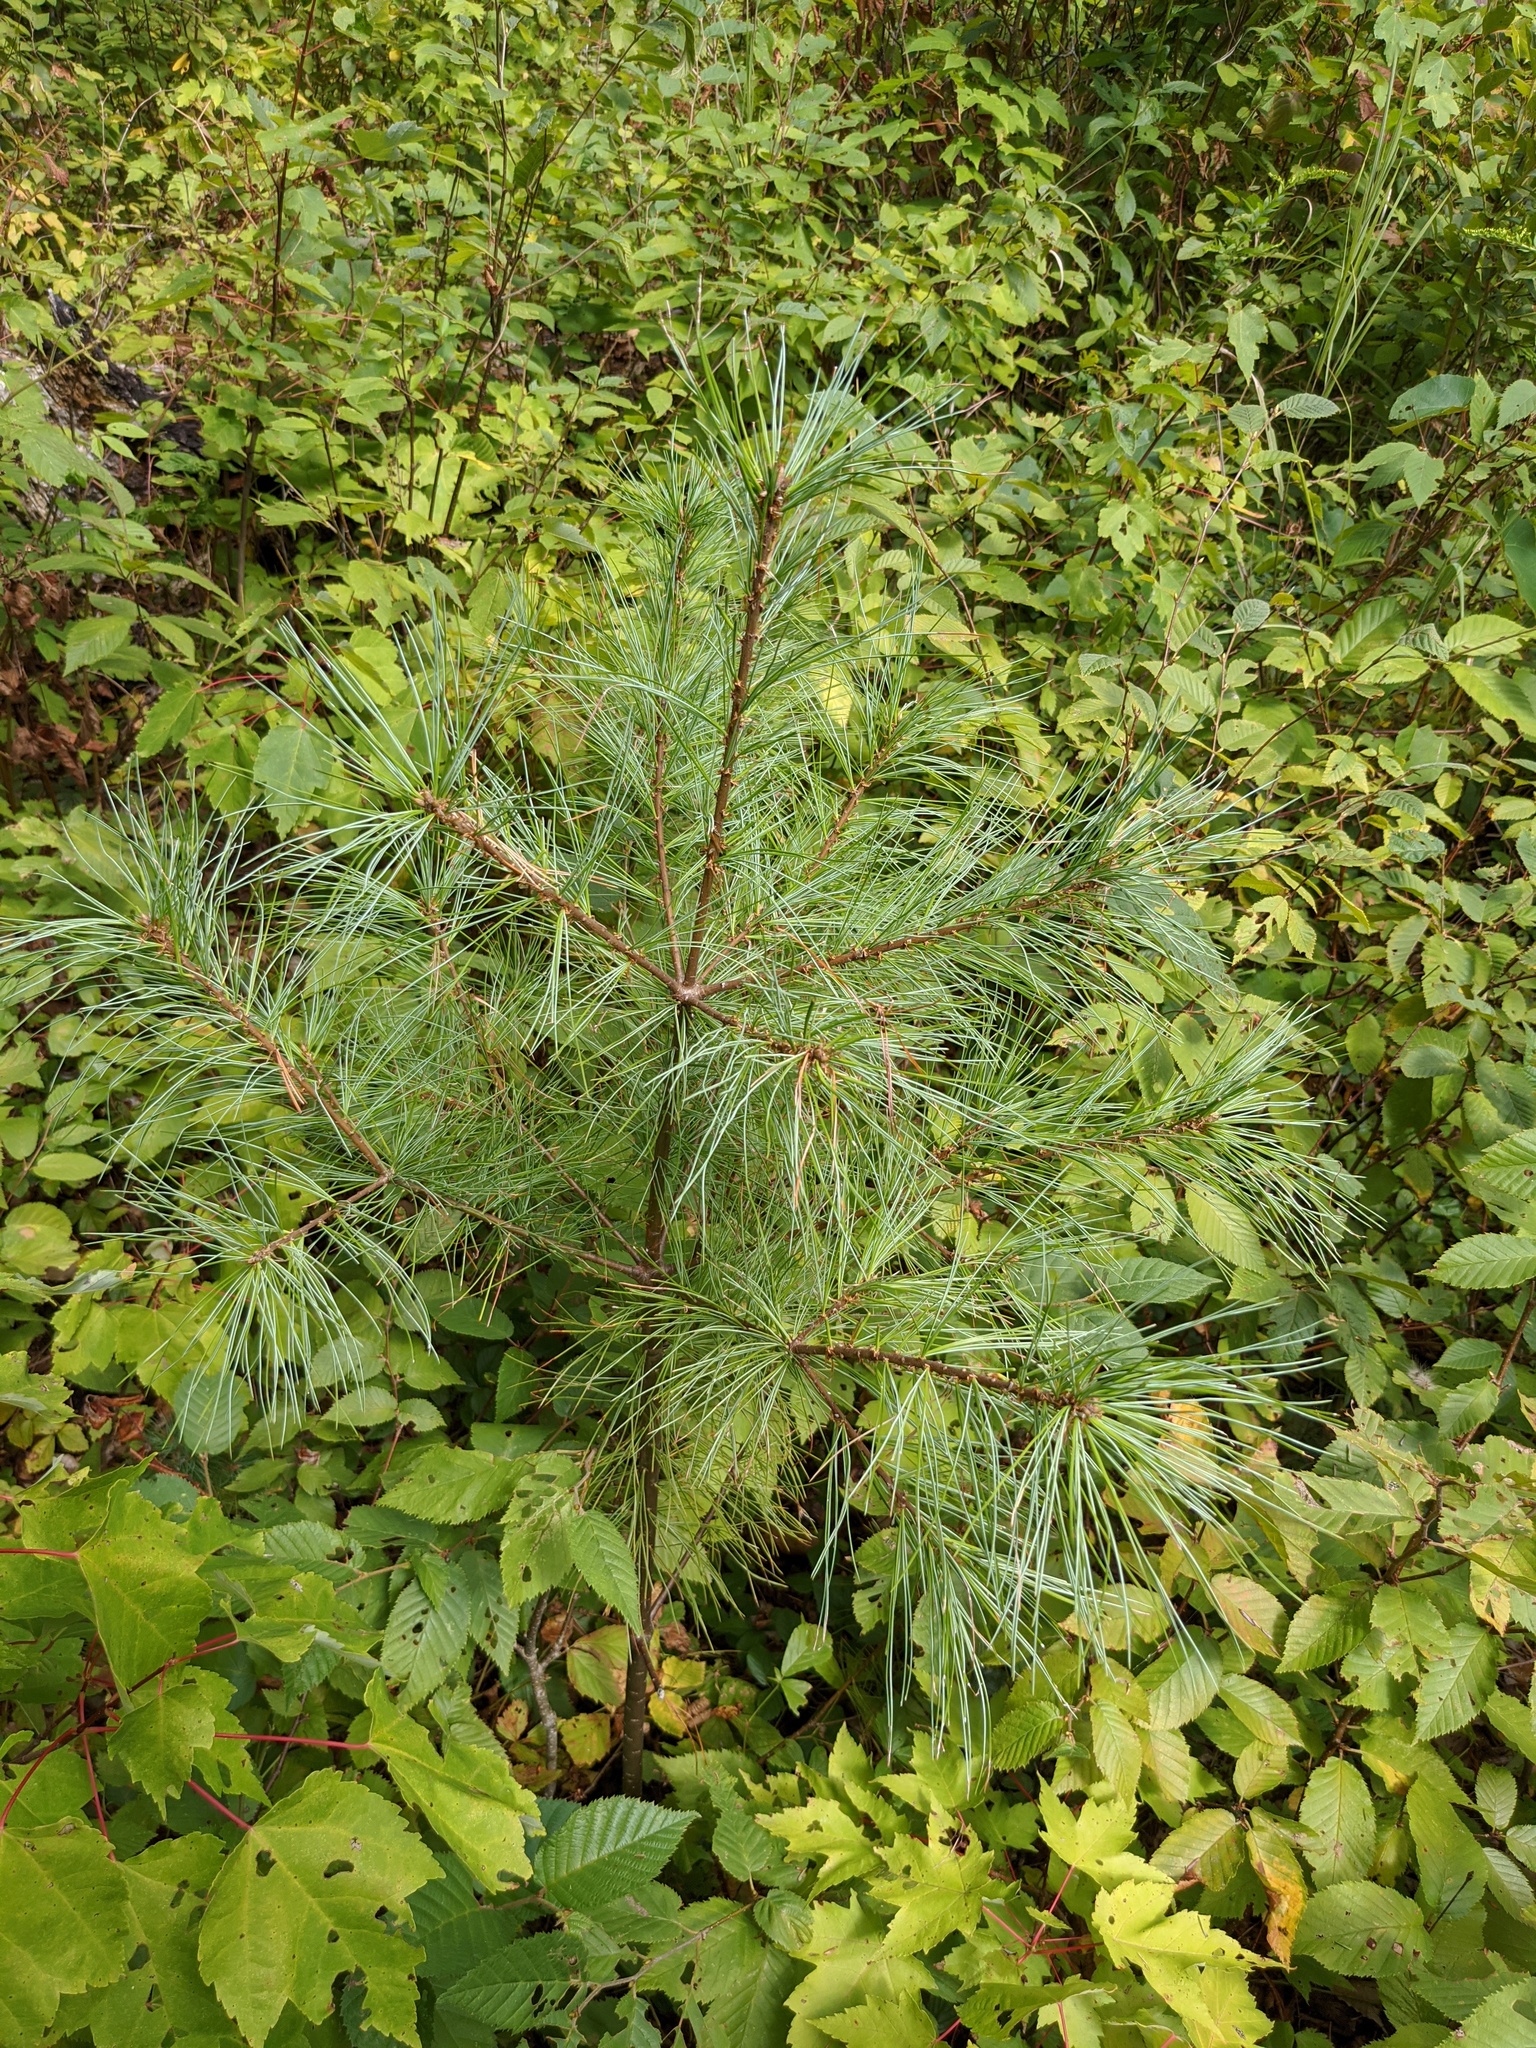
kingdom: Plantae
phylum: Tracheophyta
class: Pinopsida
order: Pinales
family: Pinaceae
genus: Pinus
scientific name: Pinus strobus
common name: Weymouth pine
